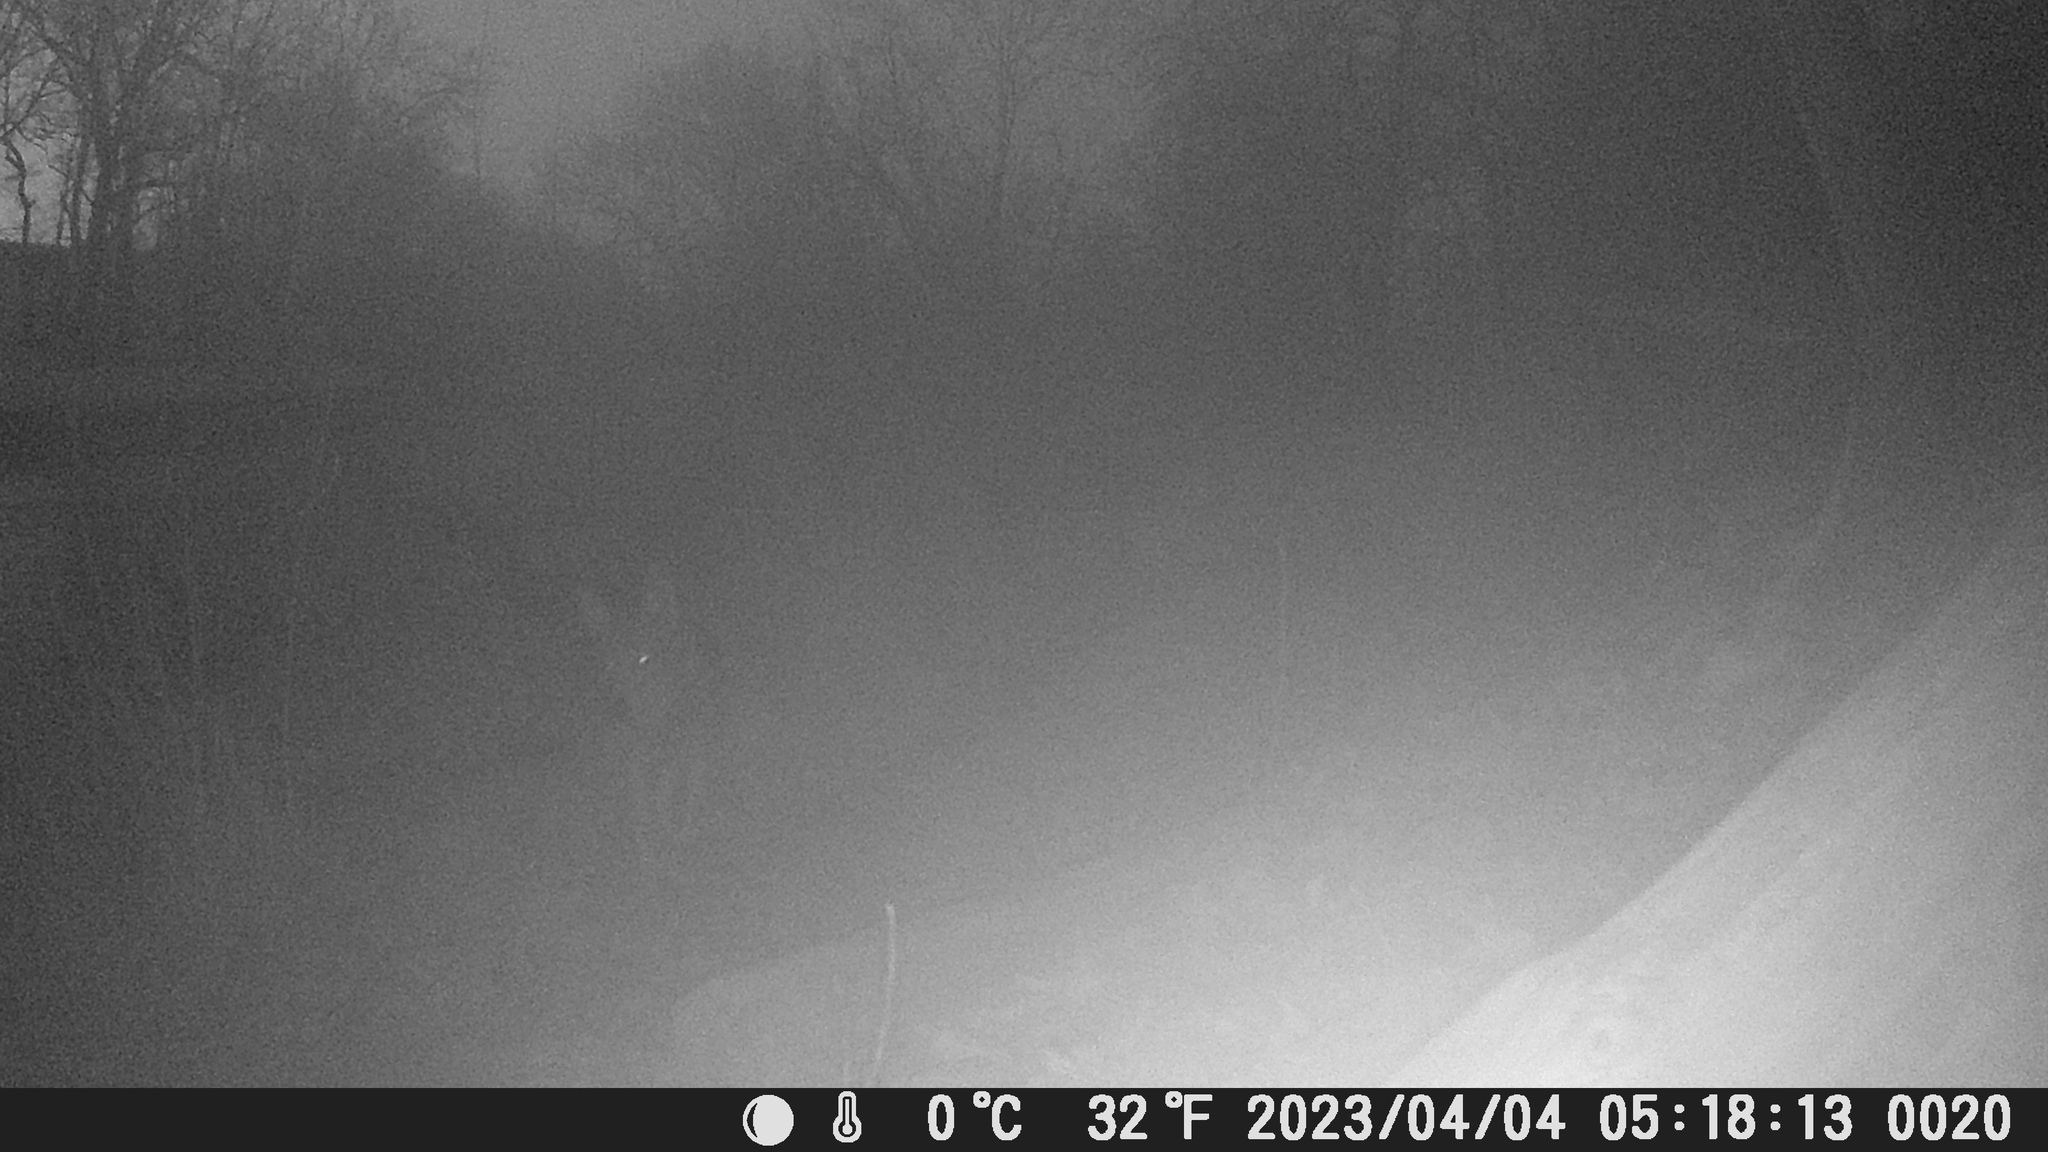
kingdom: Animalia
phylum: Chordata
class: Mammalia
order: Carnivora
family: Canidae
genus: Canis
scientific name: Canis latrans
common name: Coyote
